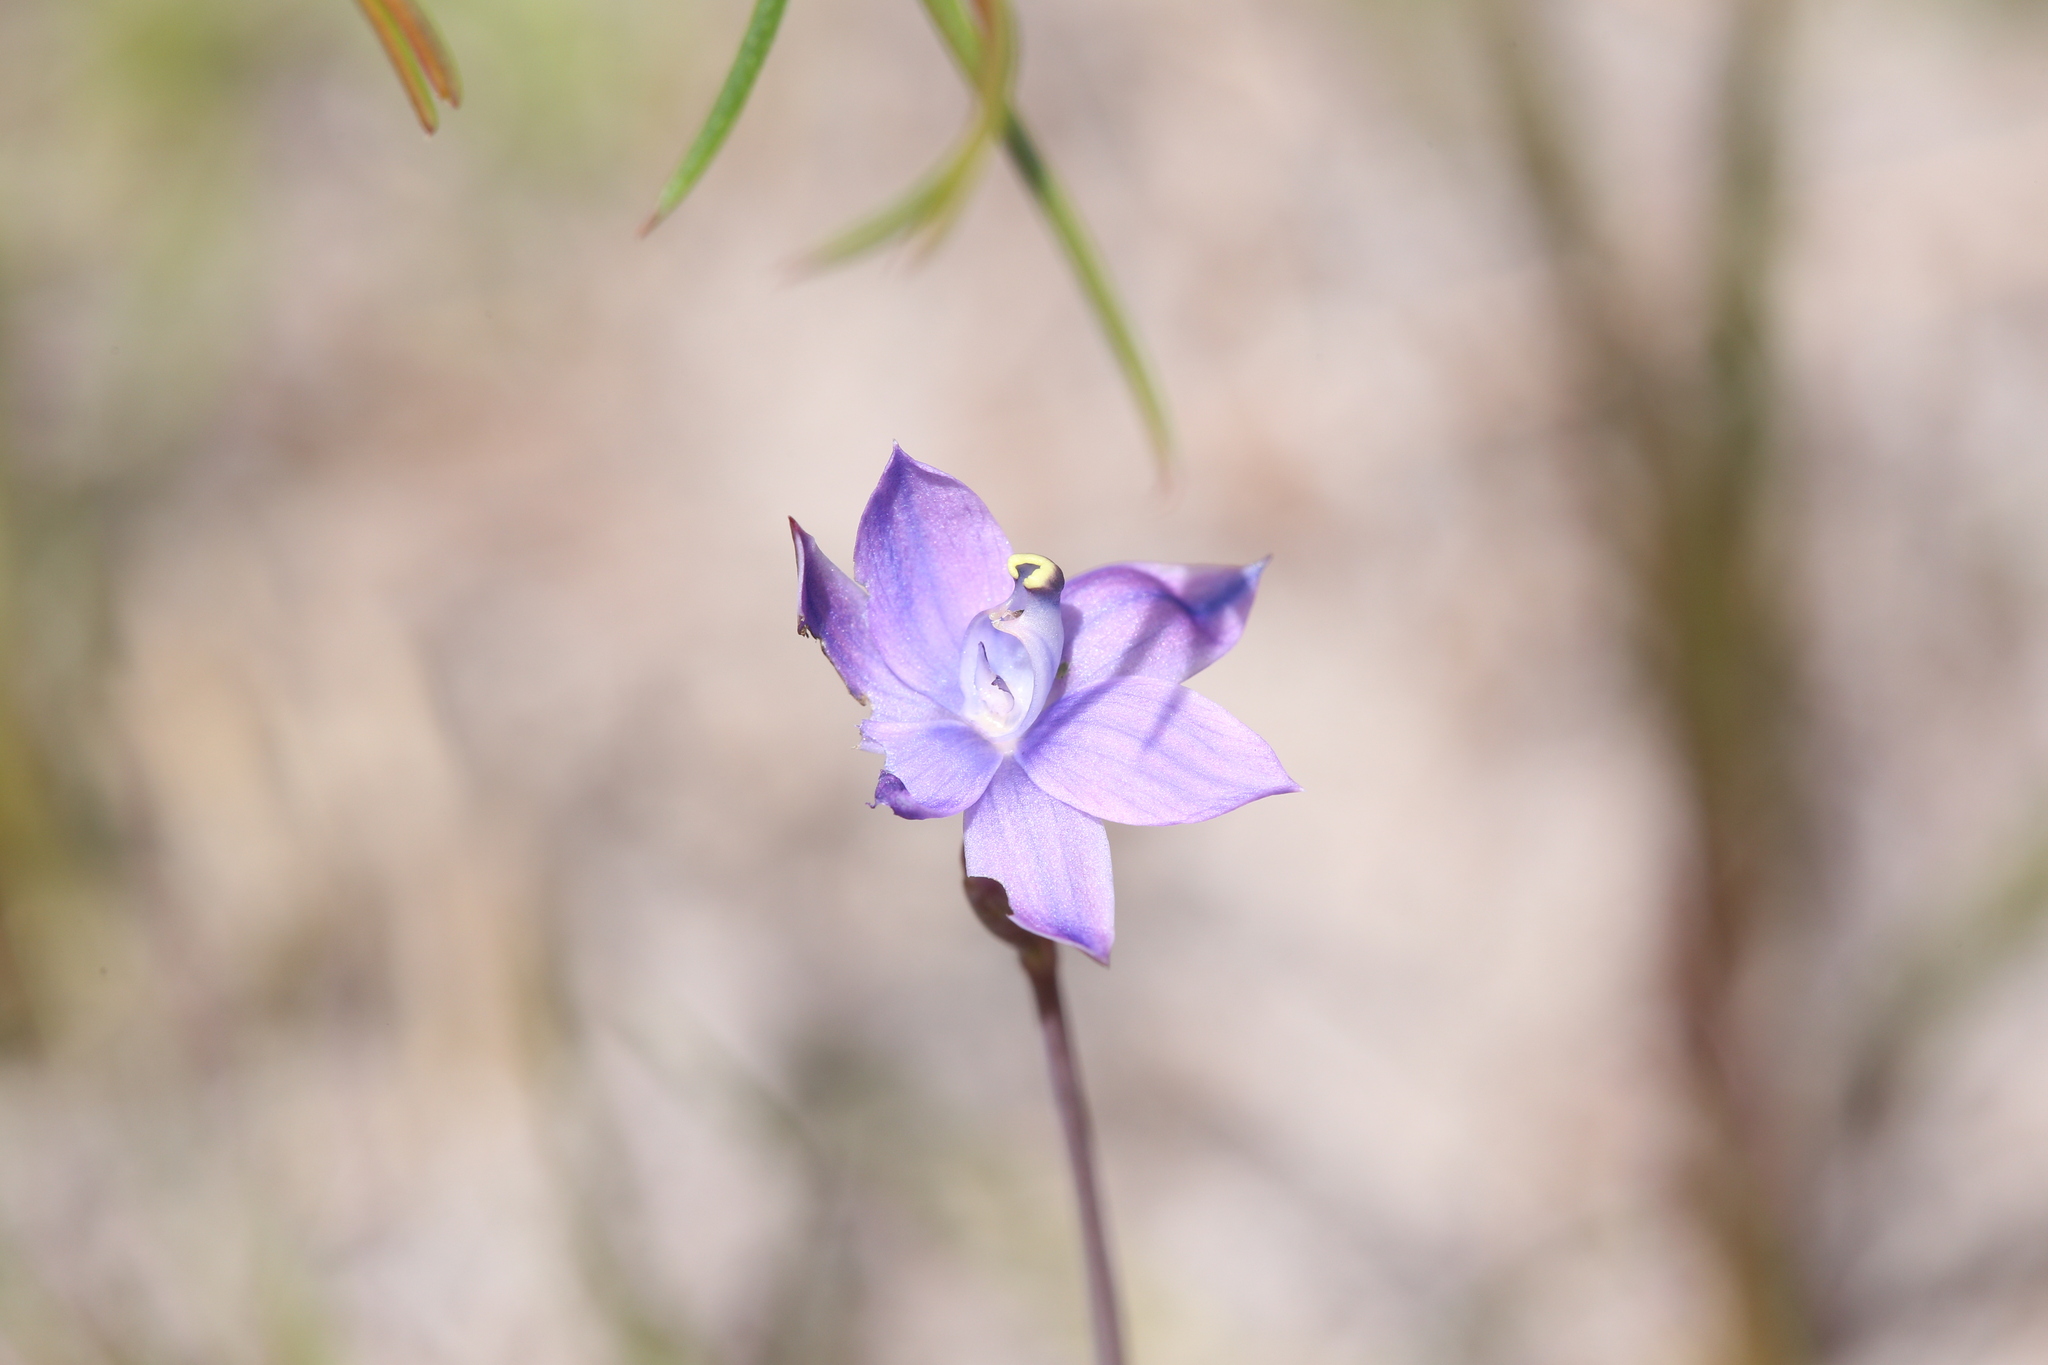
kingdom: Plantae
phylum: Tracheophyta
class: Liliopsida
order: Asparagales
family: Orchidaceae
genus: Thelymitra
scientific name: Thelymitra graminea
